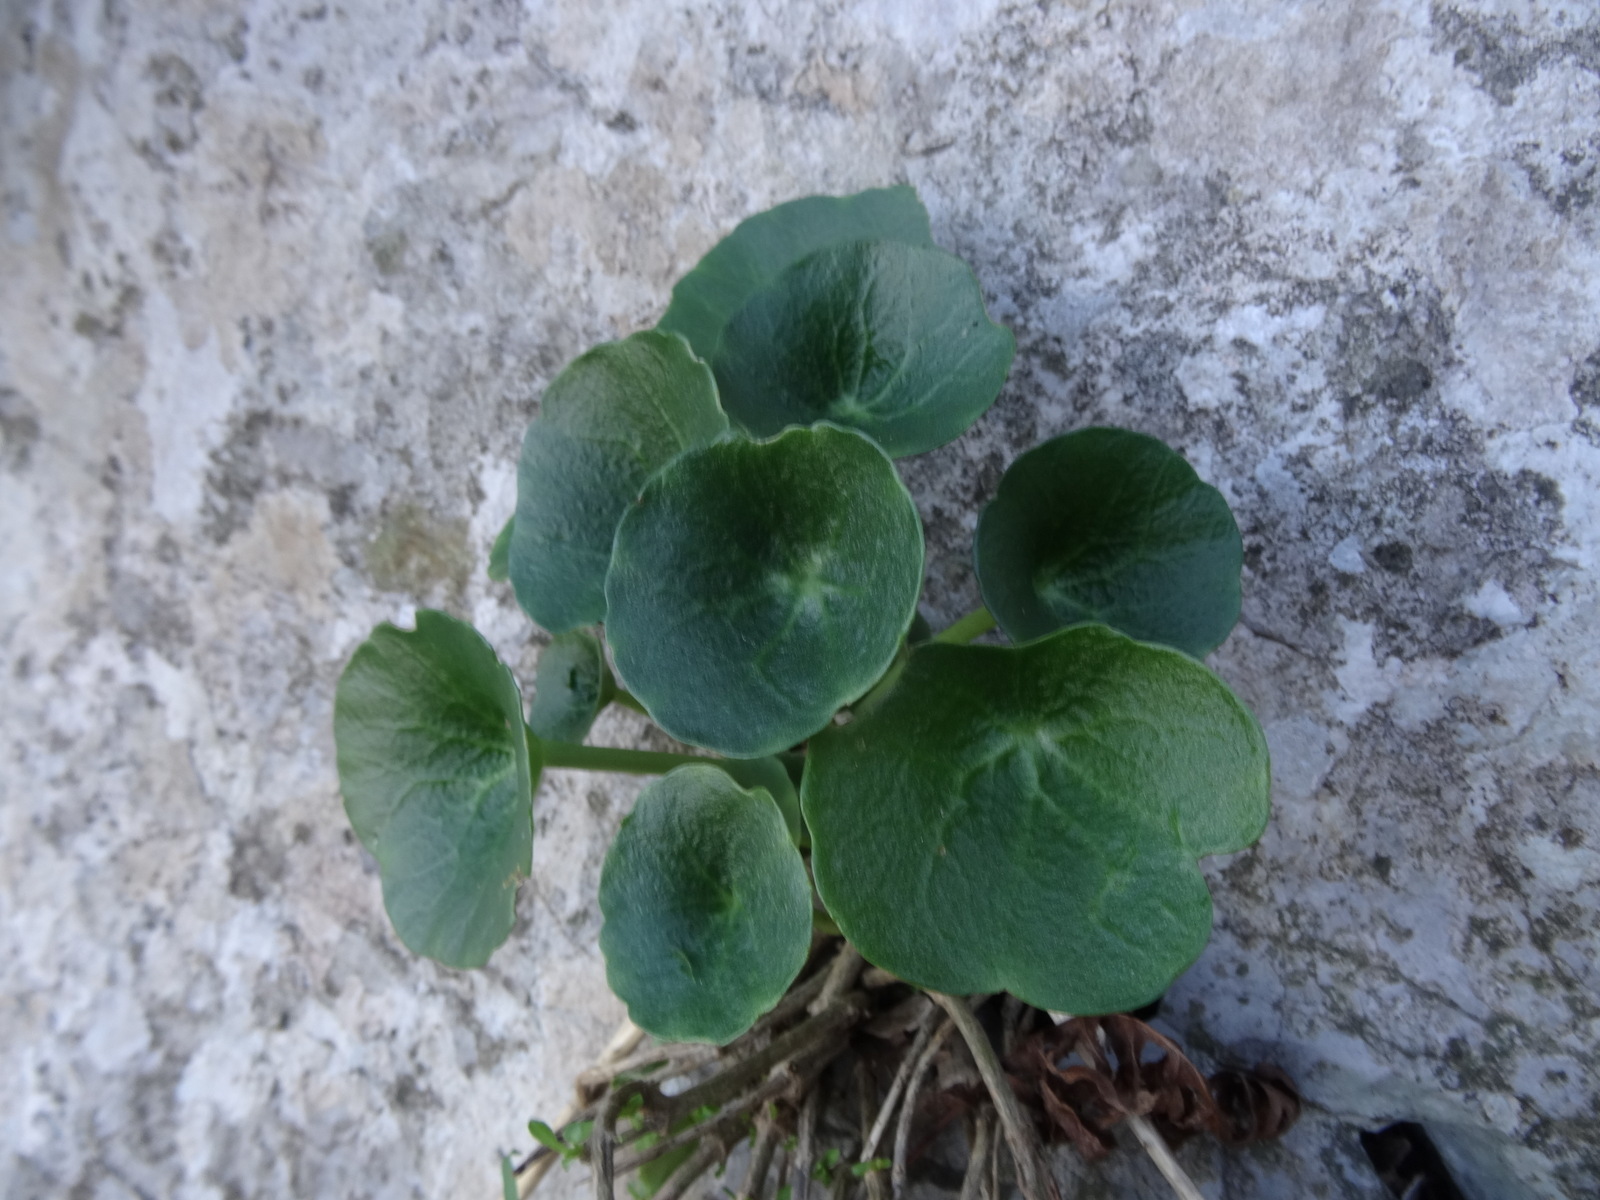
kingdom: Plantae
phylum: Tracheophyta
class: Magnoliopsida
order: Saxifragales
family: Crassulaceae
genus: Umbilicus
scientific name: Umbilicus rupestris
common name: Navelwort
